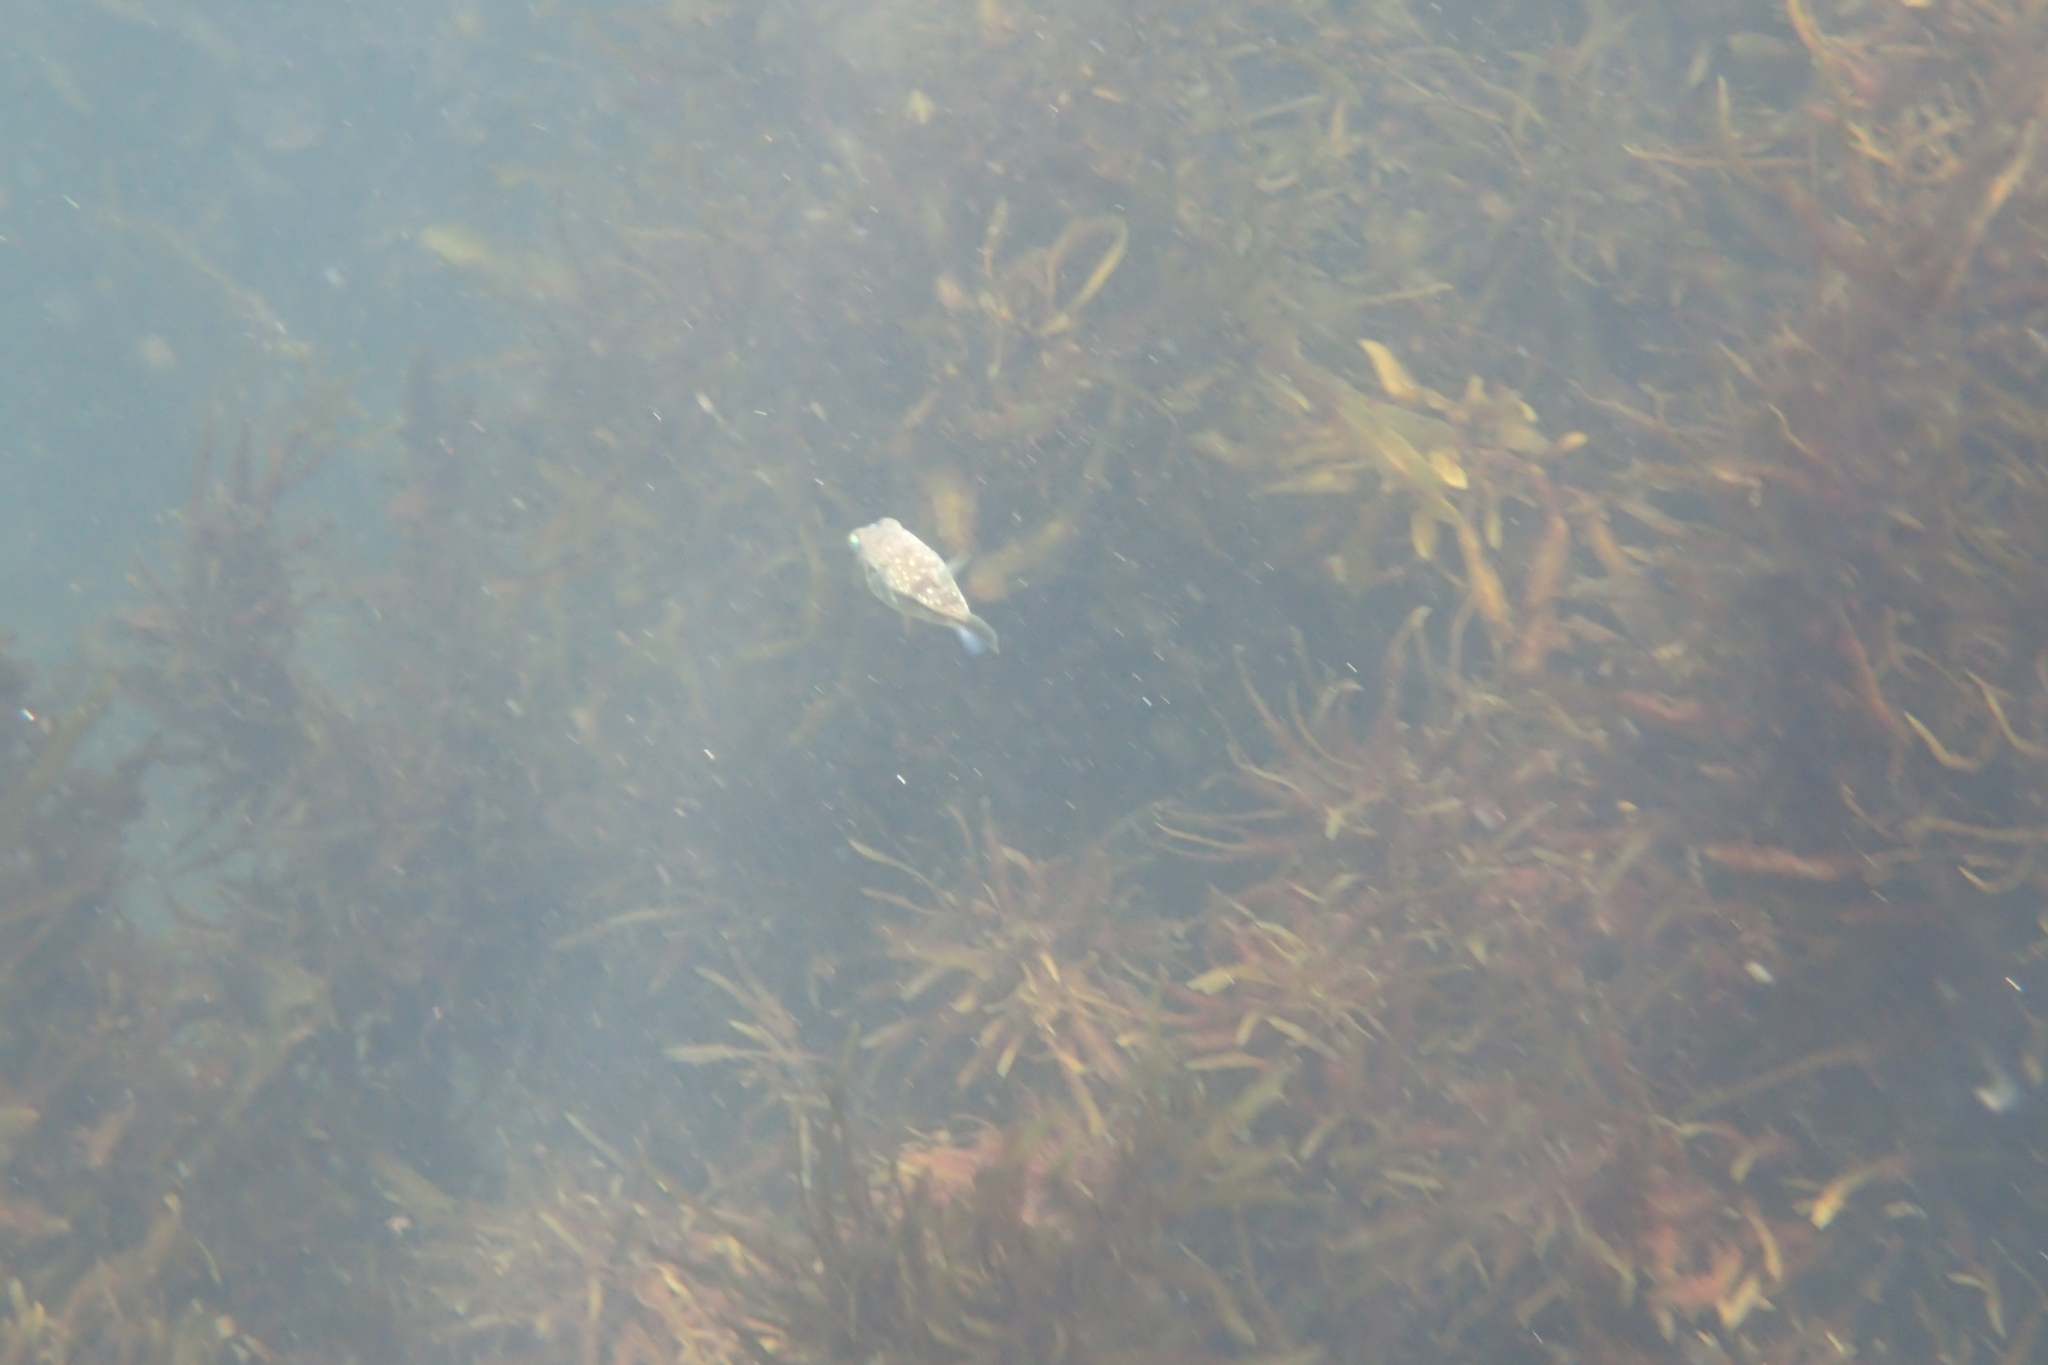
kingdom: Animalia
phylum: Chordata
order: Tetraodontiformes
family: Tetraodontidae
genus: Torquigener
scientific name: Torquigener pleurogramma
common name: Banded toadfish
